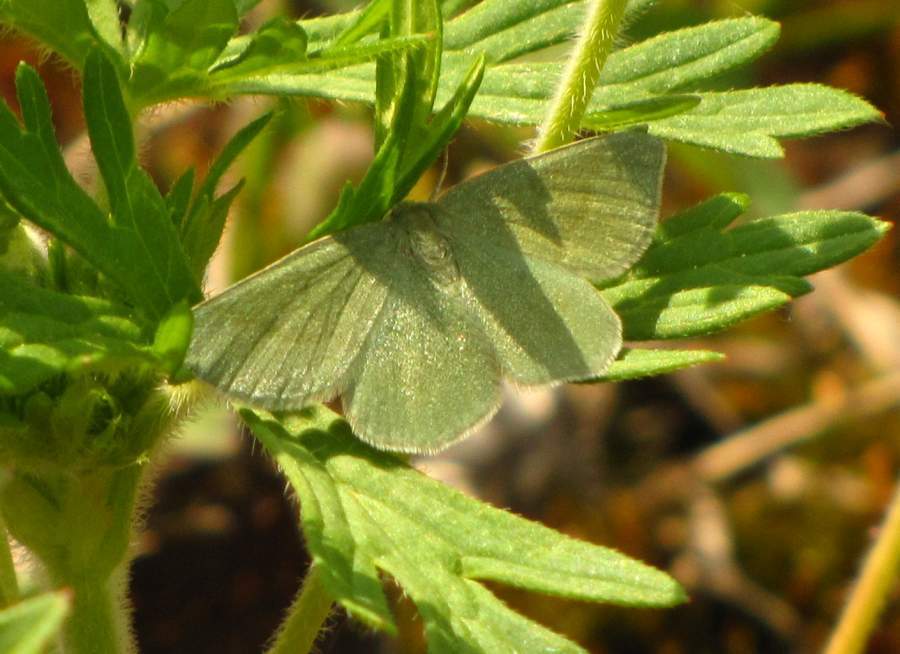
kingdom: Animalia
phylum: Arthropoda
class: Insecta
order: Lepidoptera
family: Geometridae
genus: Mesothea
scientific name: Mesothea incertata
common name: Day emerald moth
